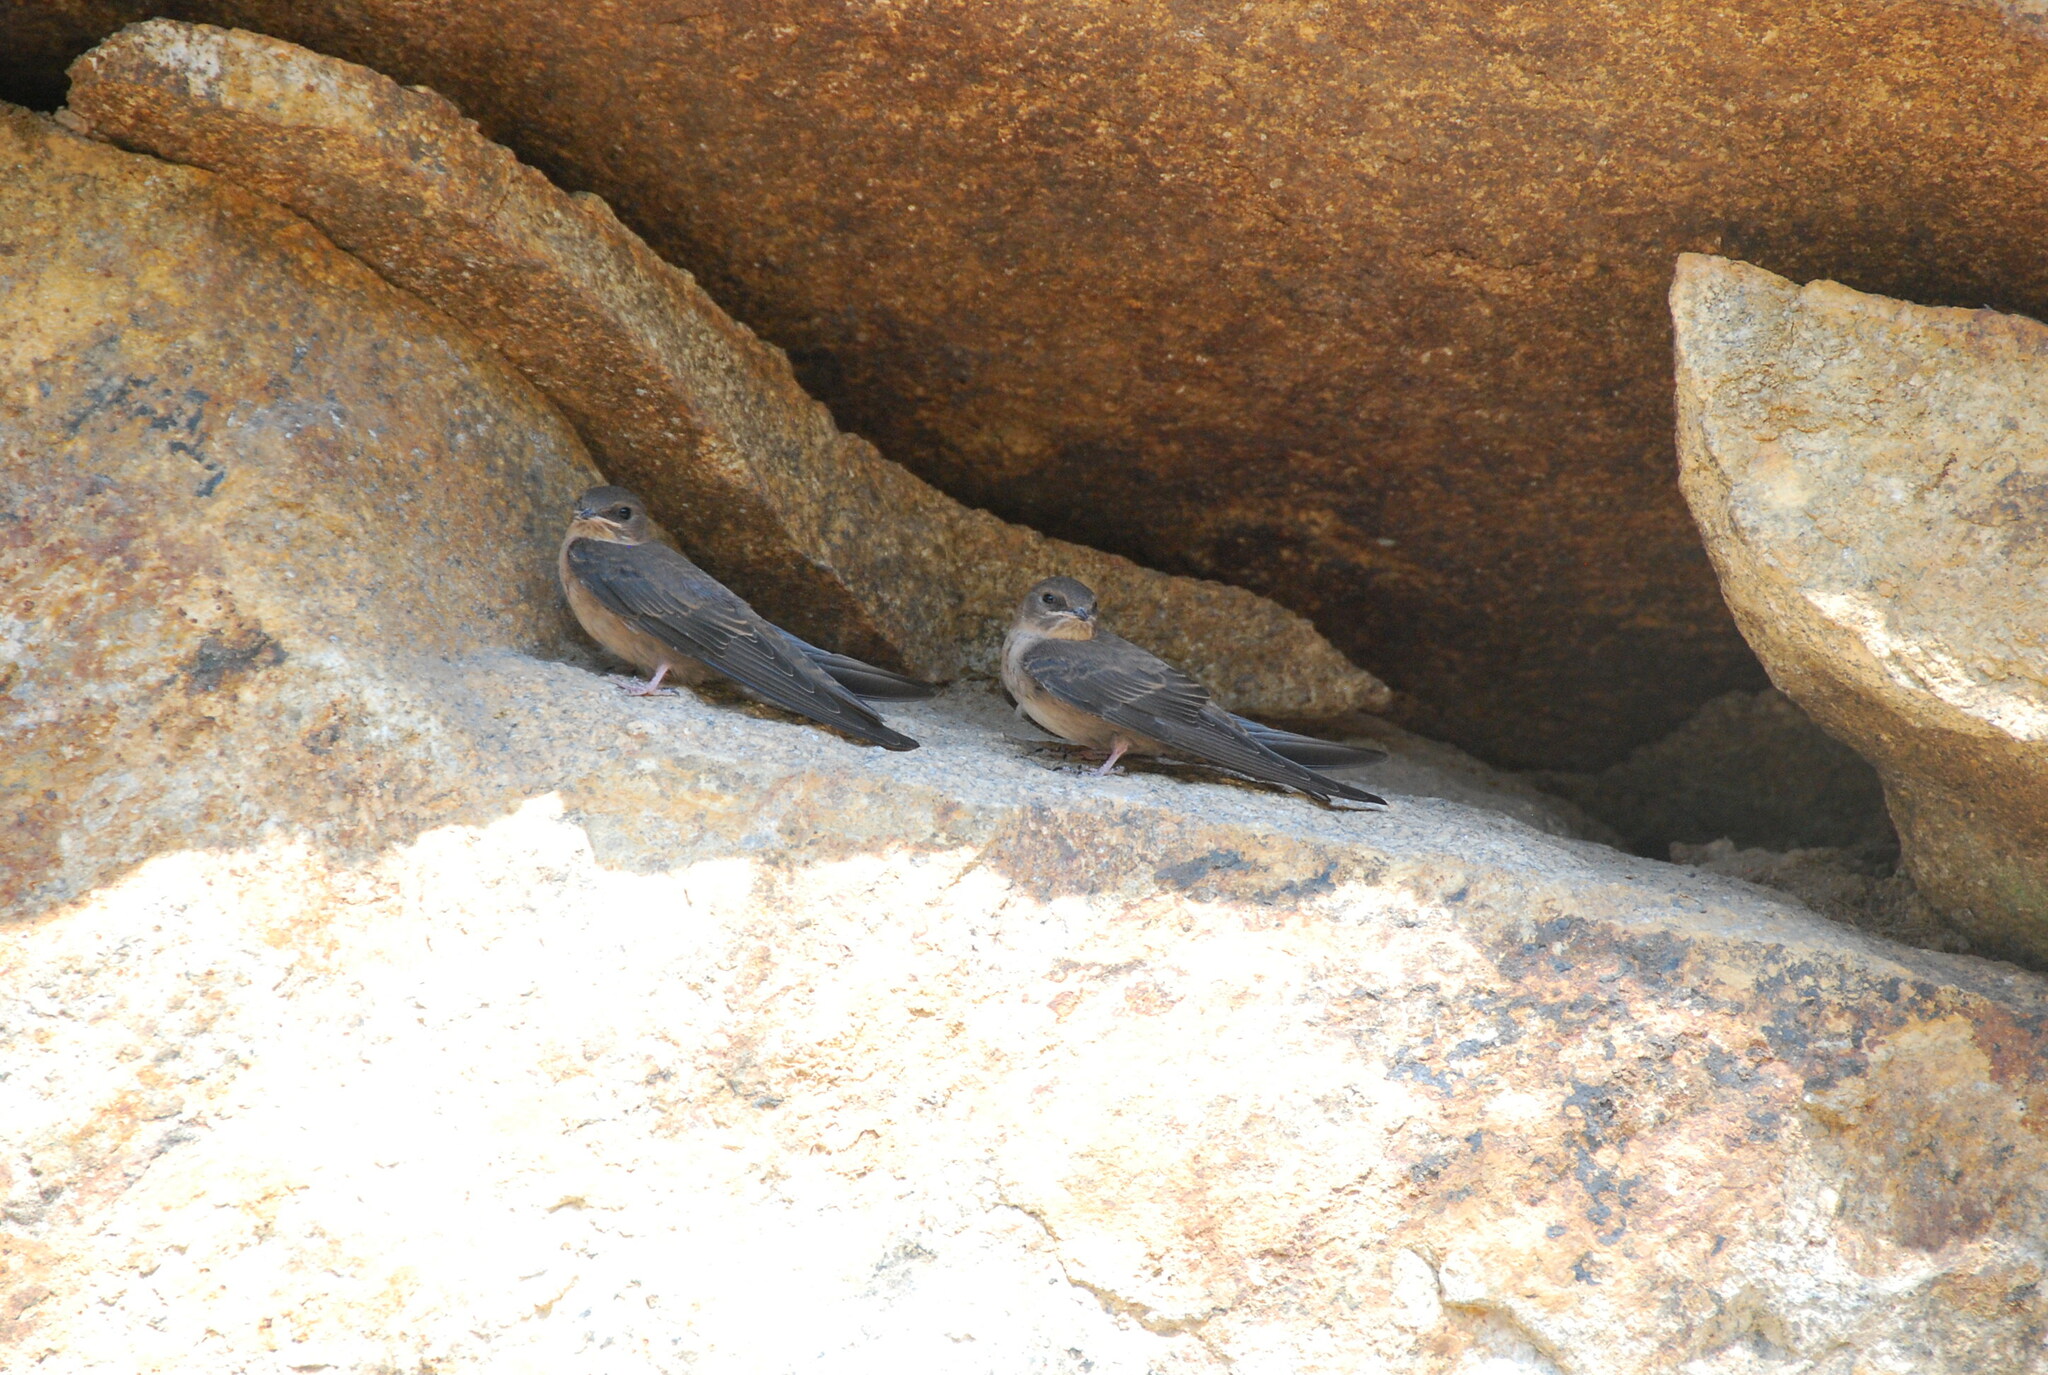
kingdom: Animalia
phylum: Chordata
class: Aves
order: Passeriformes
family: Hirundinidae
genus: Ptyonoprogne
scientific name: Ptyonoprogne rupestris
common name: Eurasian crag martin
